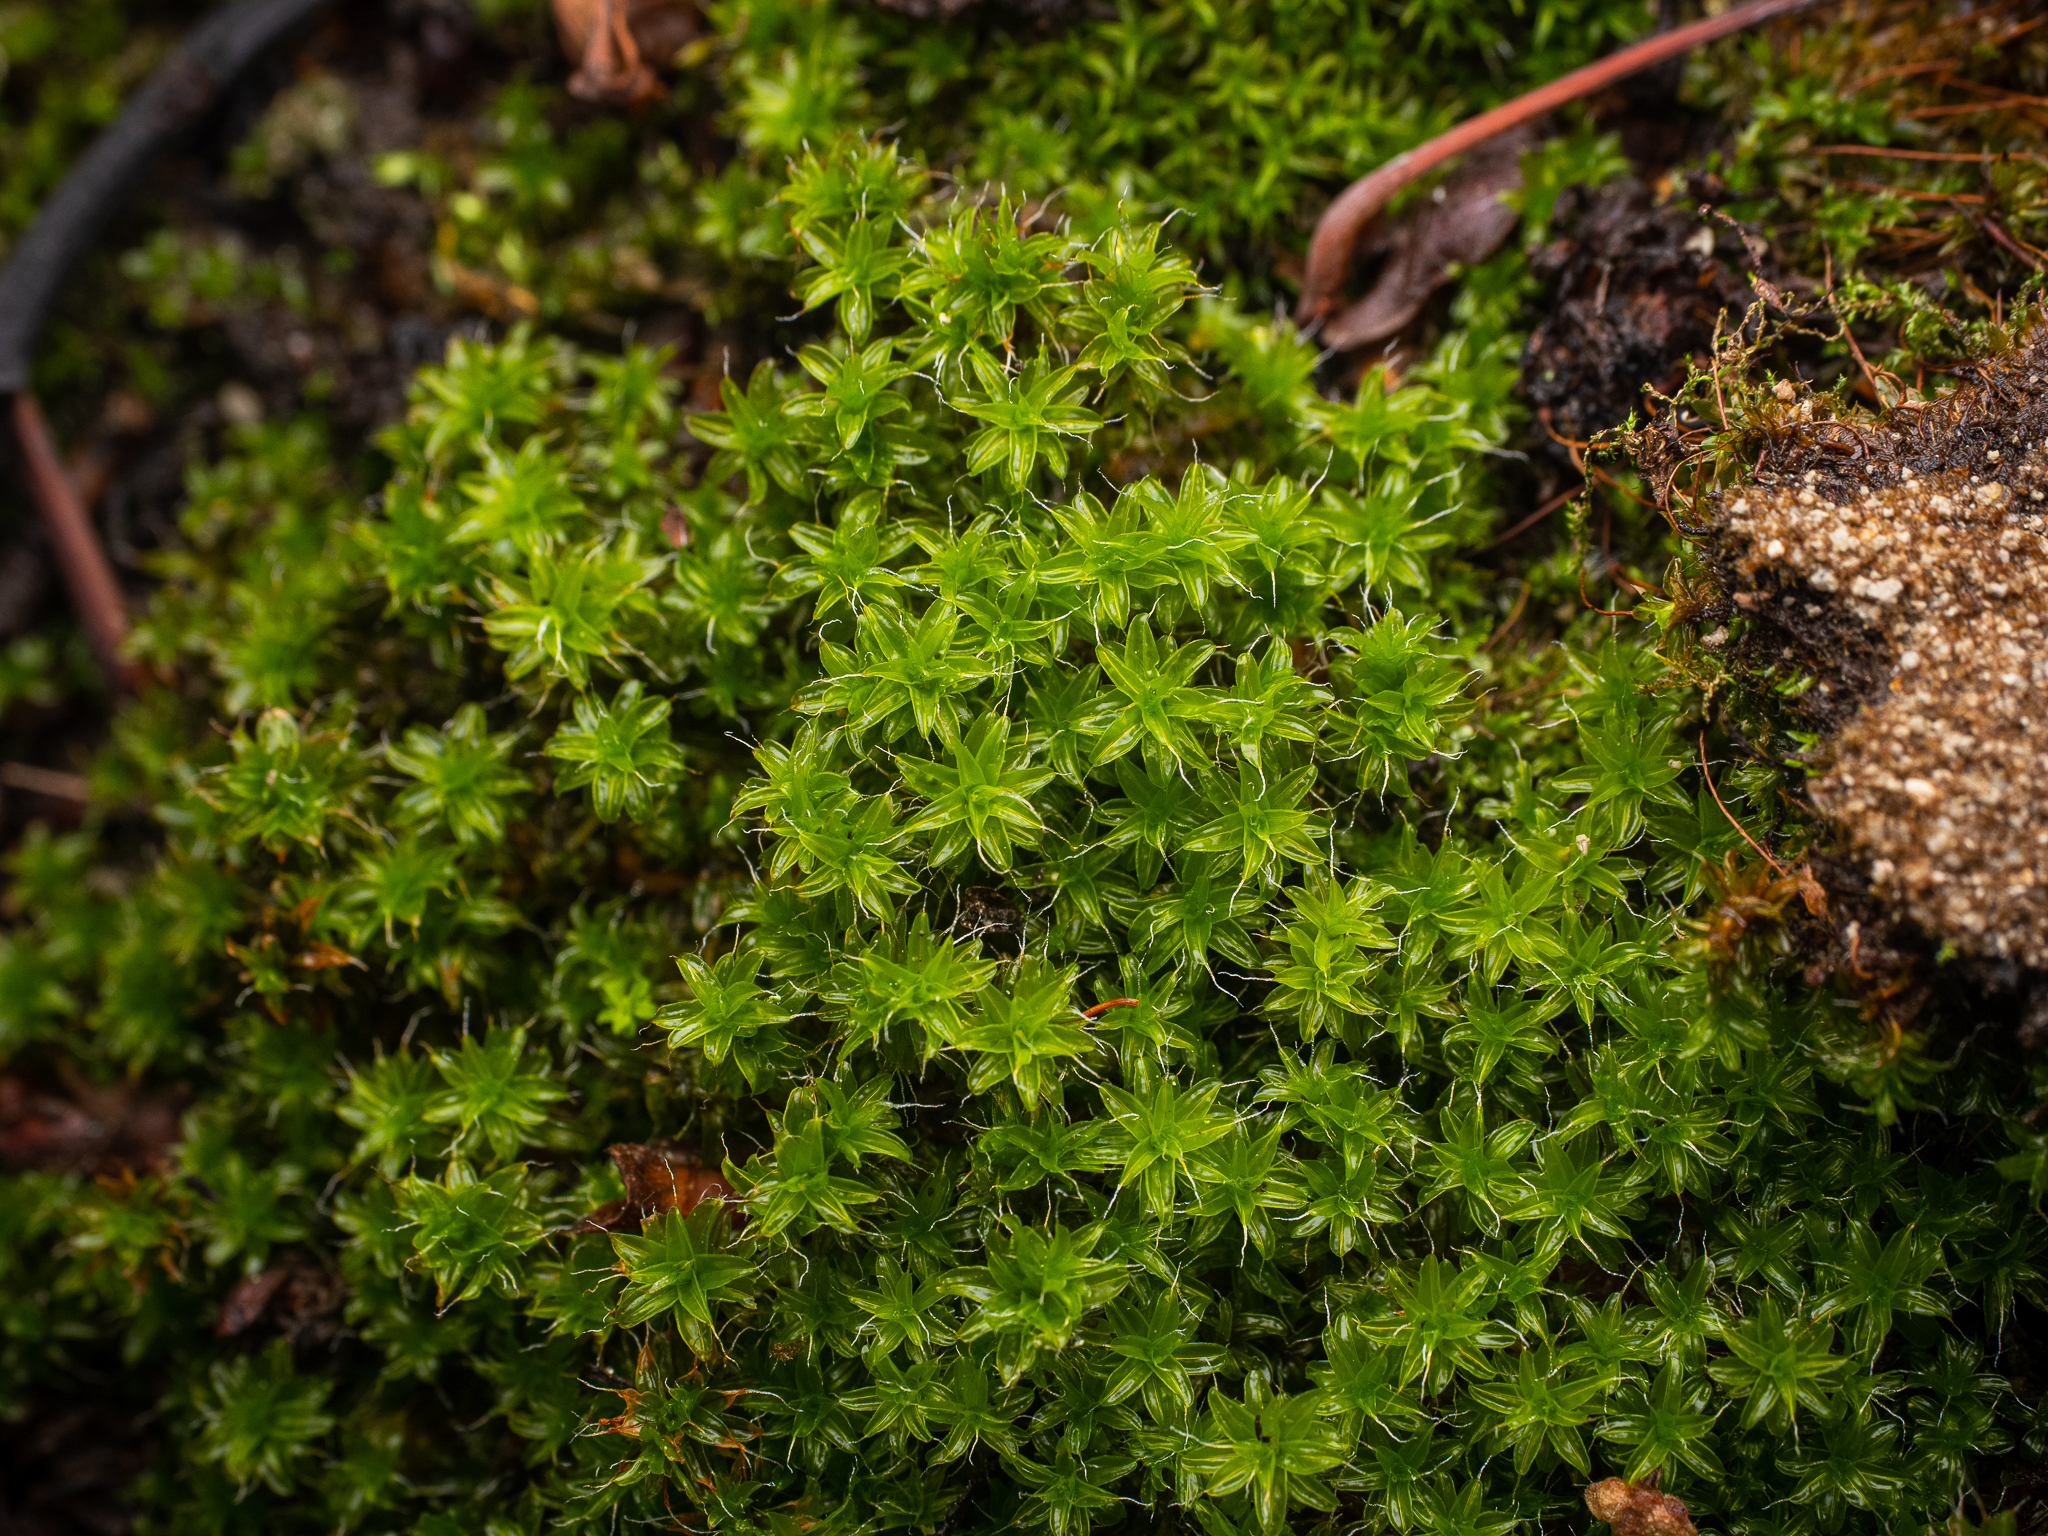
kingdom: Plantae
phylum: Bryophyta
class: Bryopsida
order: Pottiales
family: Pottiaceae
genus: Syntrichia
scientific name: Syntrichia ruralis
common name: Sidewalk screw moss
